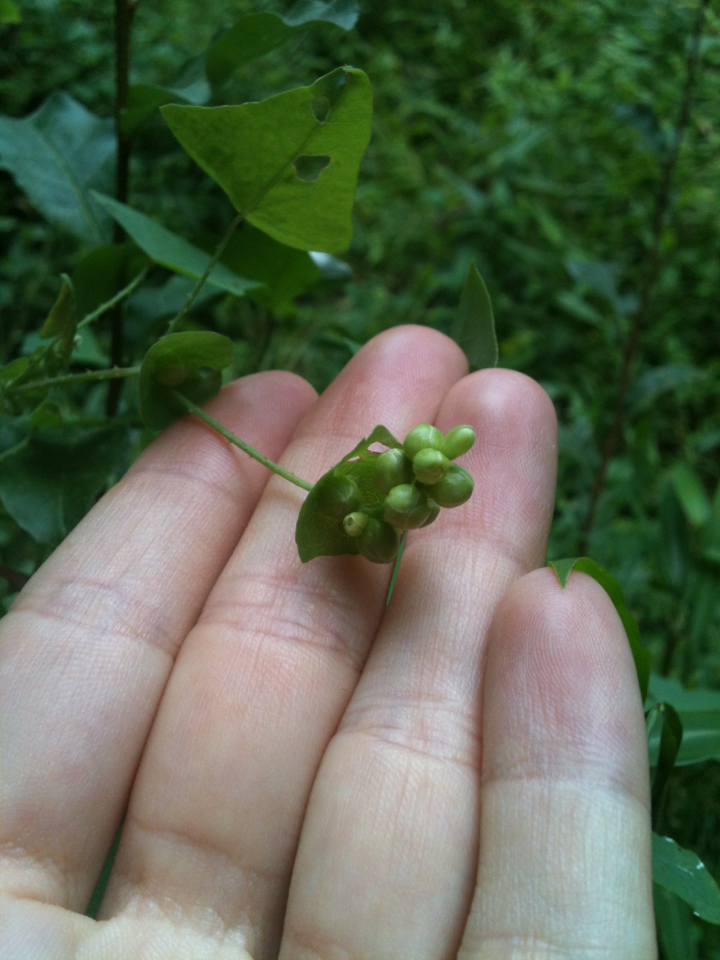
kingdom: Plantae
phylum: Tracheophyta
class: Magnoliopsida
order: Caryophyllales
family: Polygonaceae
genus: Persicaria
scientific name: Persicaria perfoliata
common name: Asiatic tearthumb
